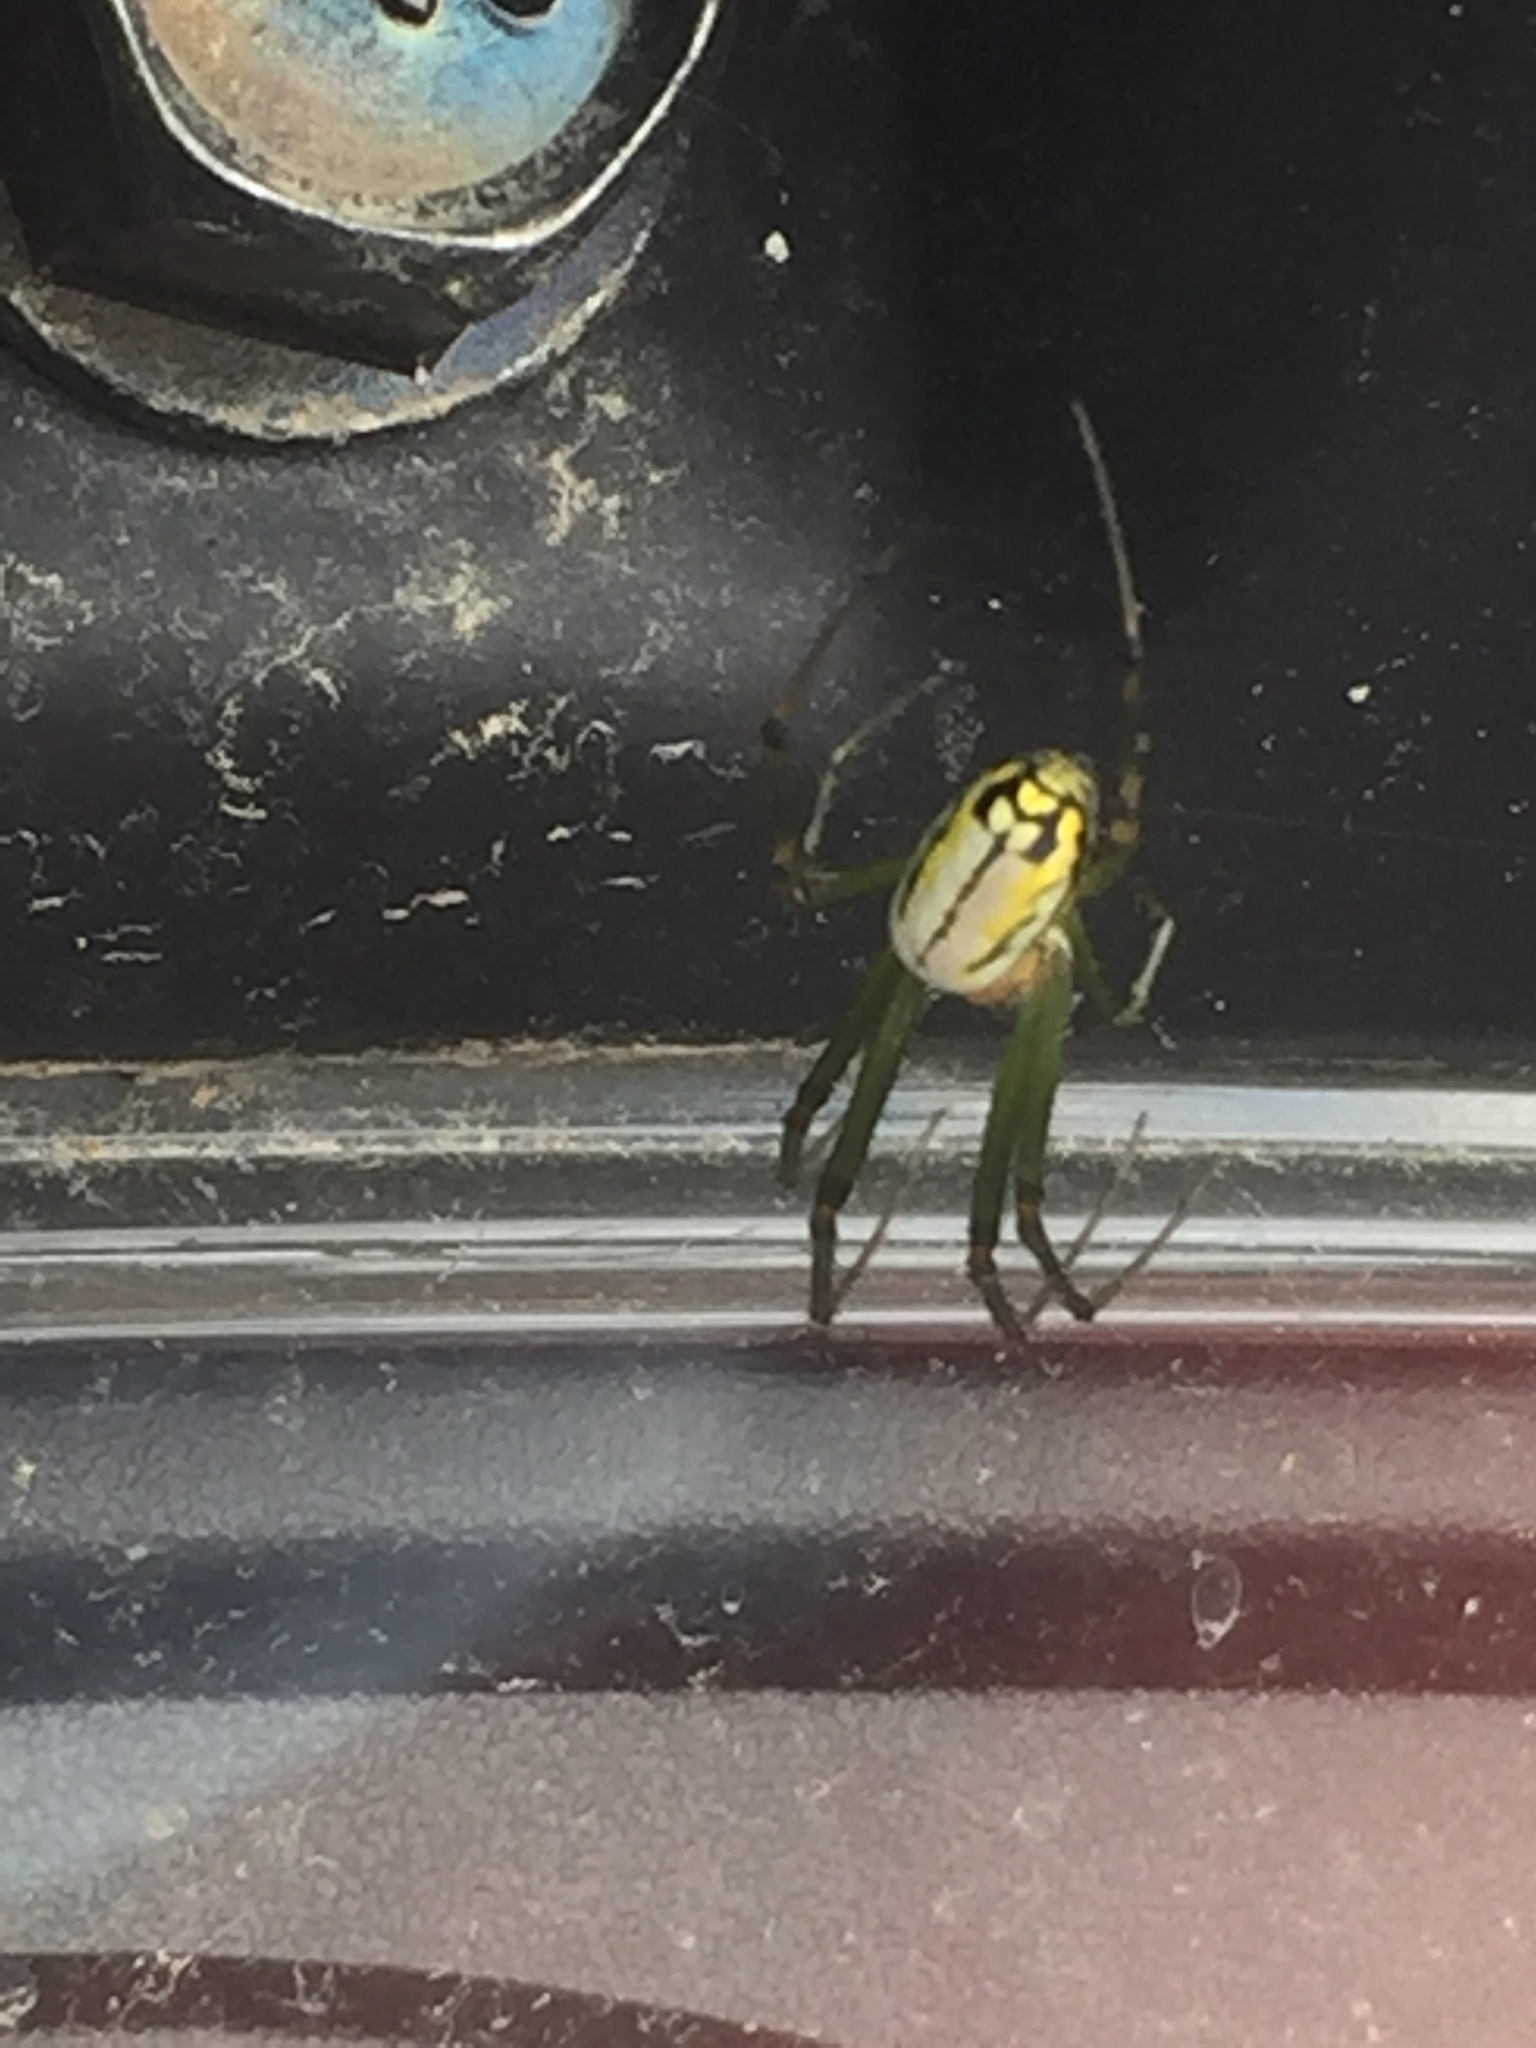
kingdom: Animalia
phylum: Arthropoda
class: Arachnida
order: Araneae
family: Tetragnathidae
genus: Leucauge
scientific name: Leucauge venusta
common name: Longjawed orb weavers
